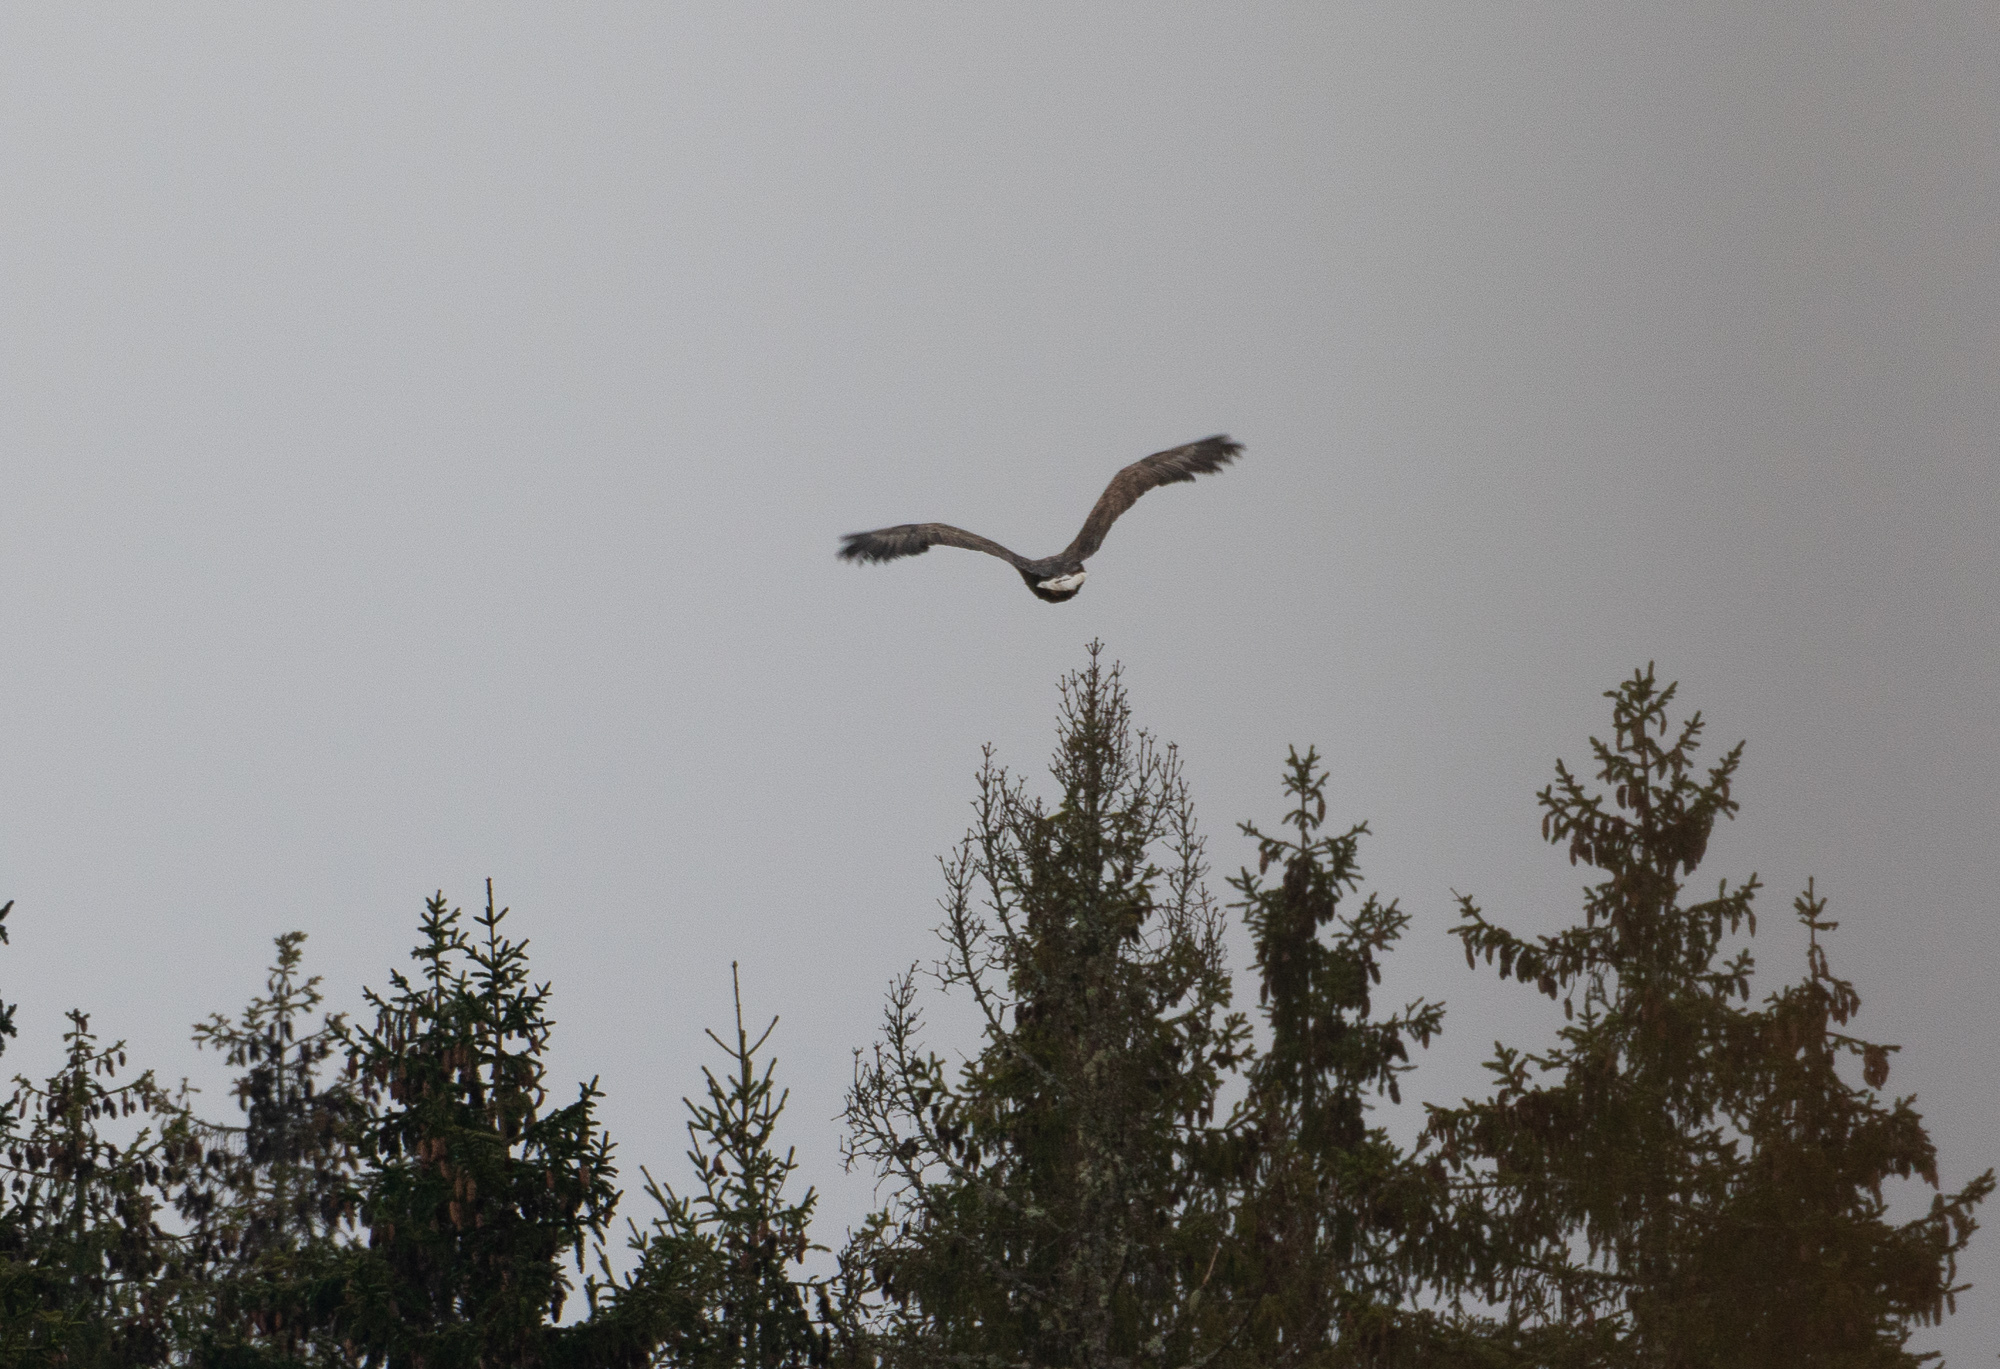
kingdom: Animalia
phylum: Chordata
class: Aves
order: Accipitriformes
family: Accipitridae
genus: Haliaeetus
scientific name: Haliaeetus albicilla
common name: White-tailed eagle
